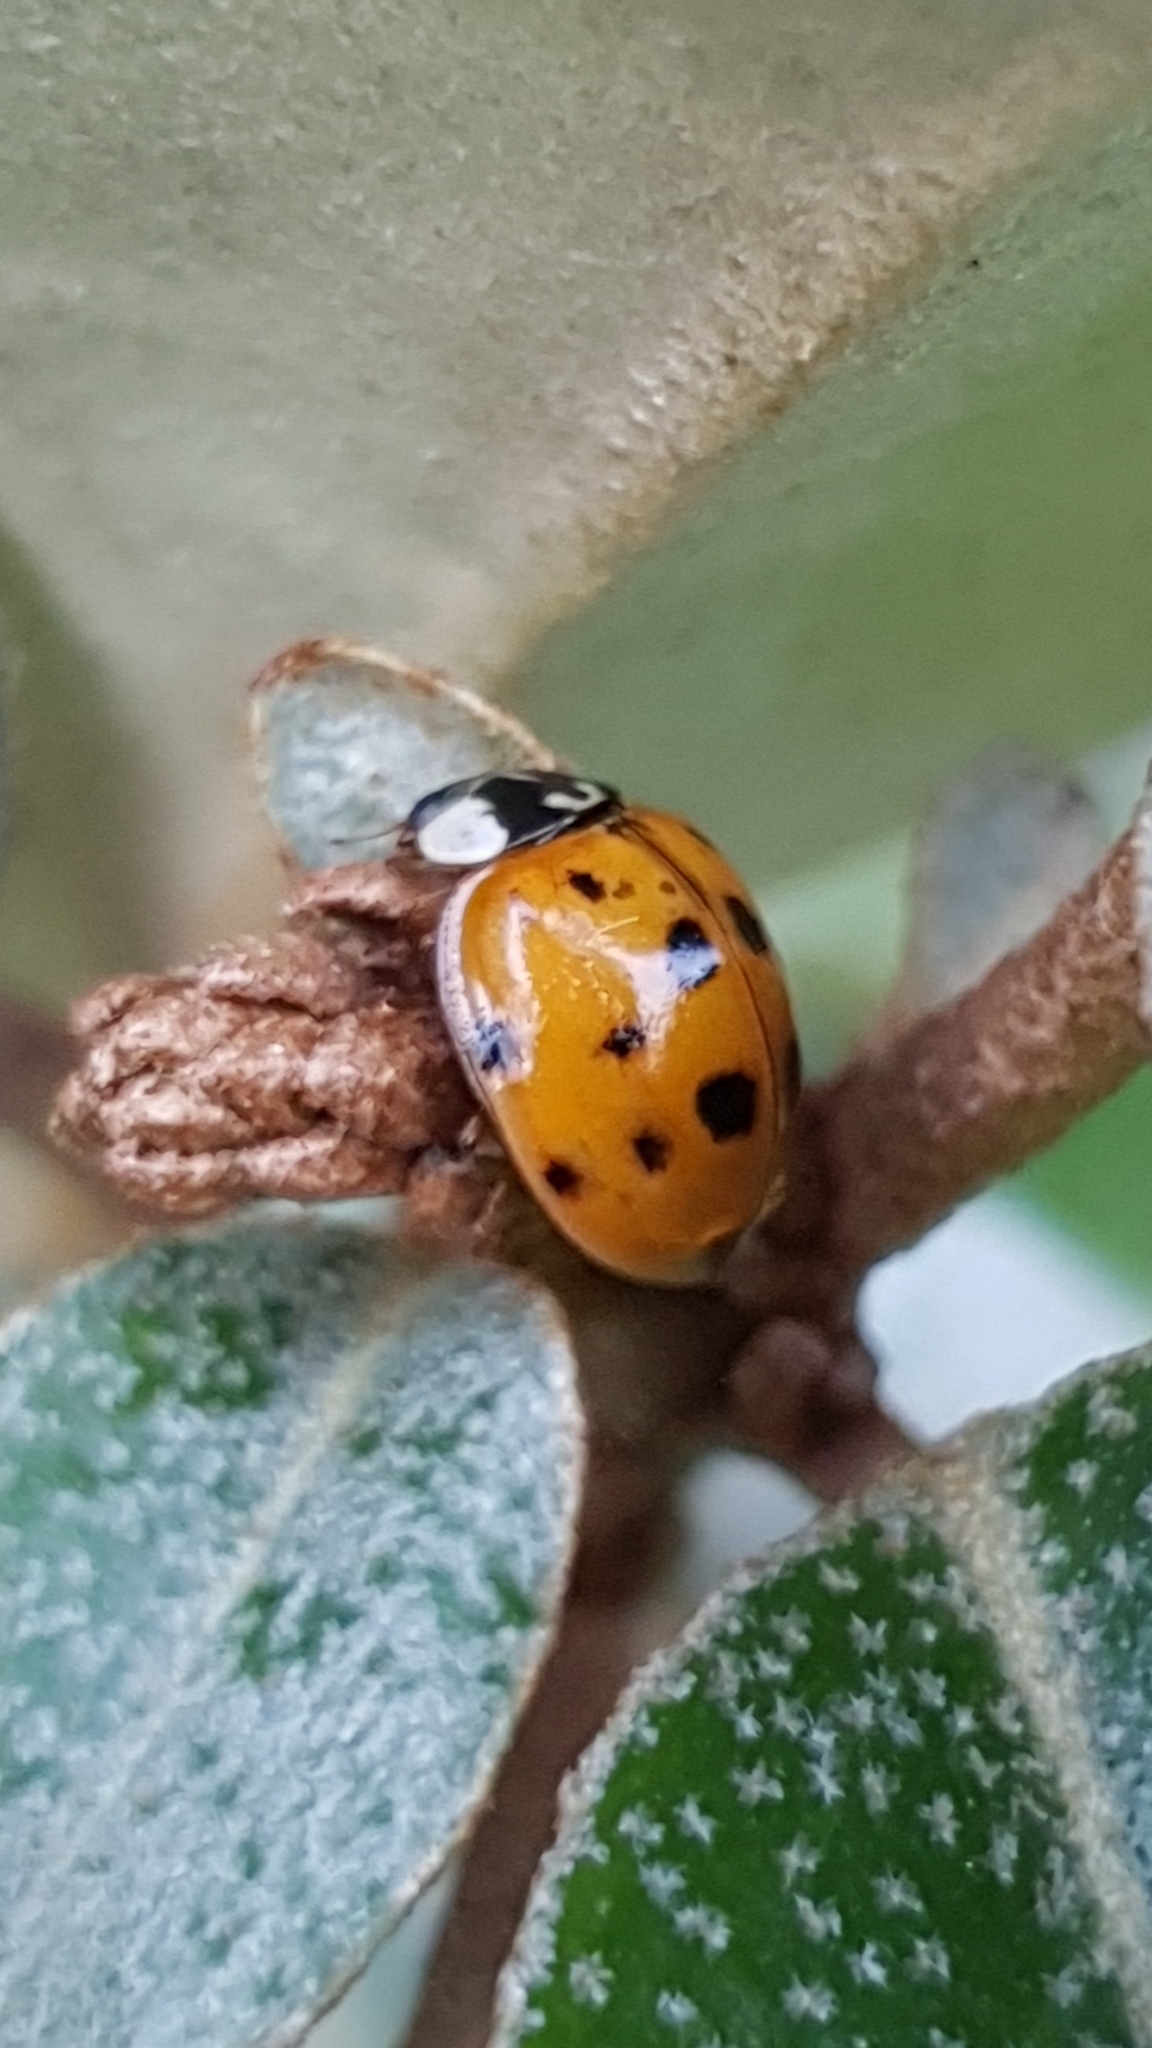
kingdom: Animalia
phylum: Arthropoda
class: Insecta
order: Coleoptera
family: Coccinellidae
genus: Harmonia
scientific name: Harmonia axyridis
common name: Harlequin ladybird
